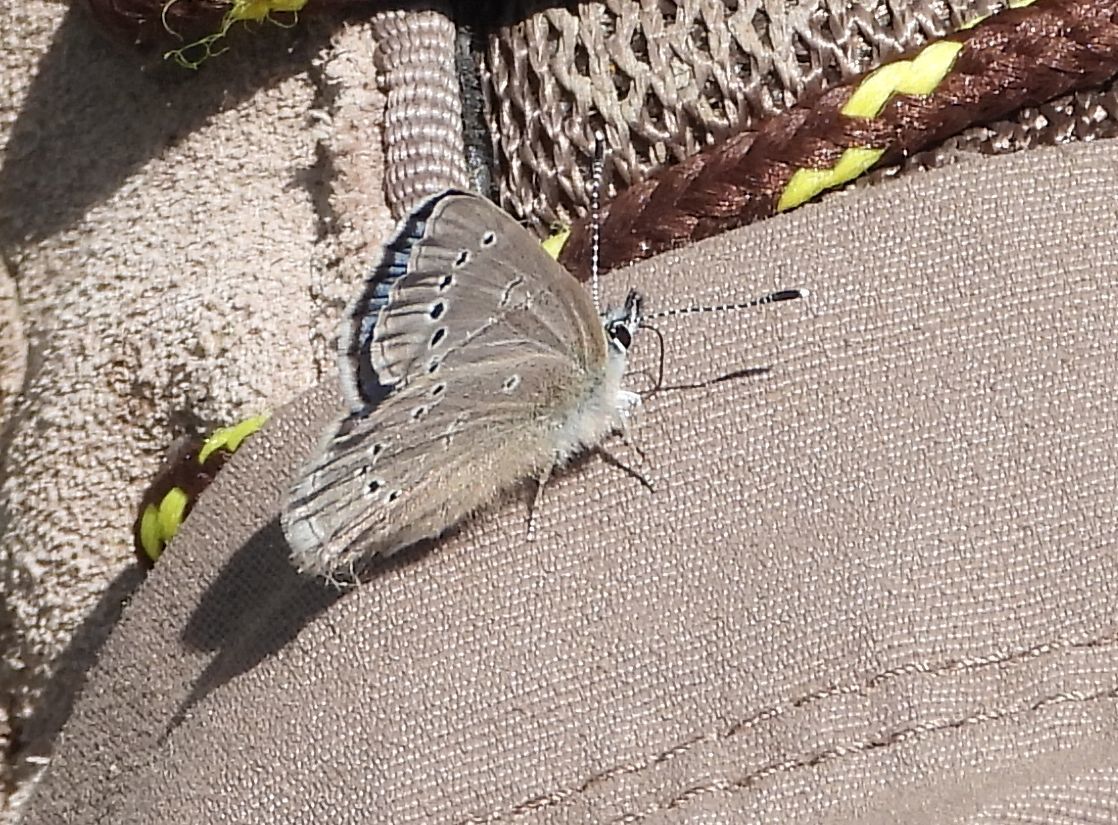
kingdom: Animalia
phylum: Arthropoda
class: Insecta
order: Lepidoptera
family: Lycaenidae
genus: Glaucopsyche
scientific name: Glaucopsyche lygdamus
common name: Silvery blue
